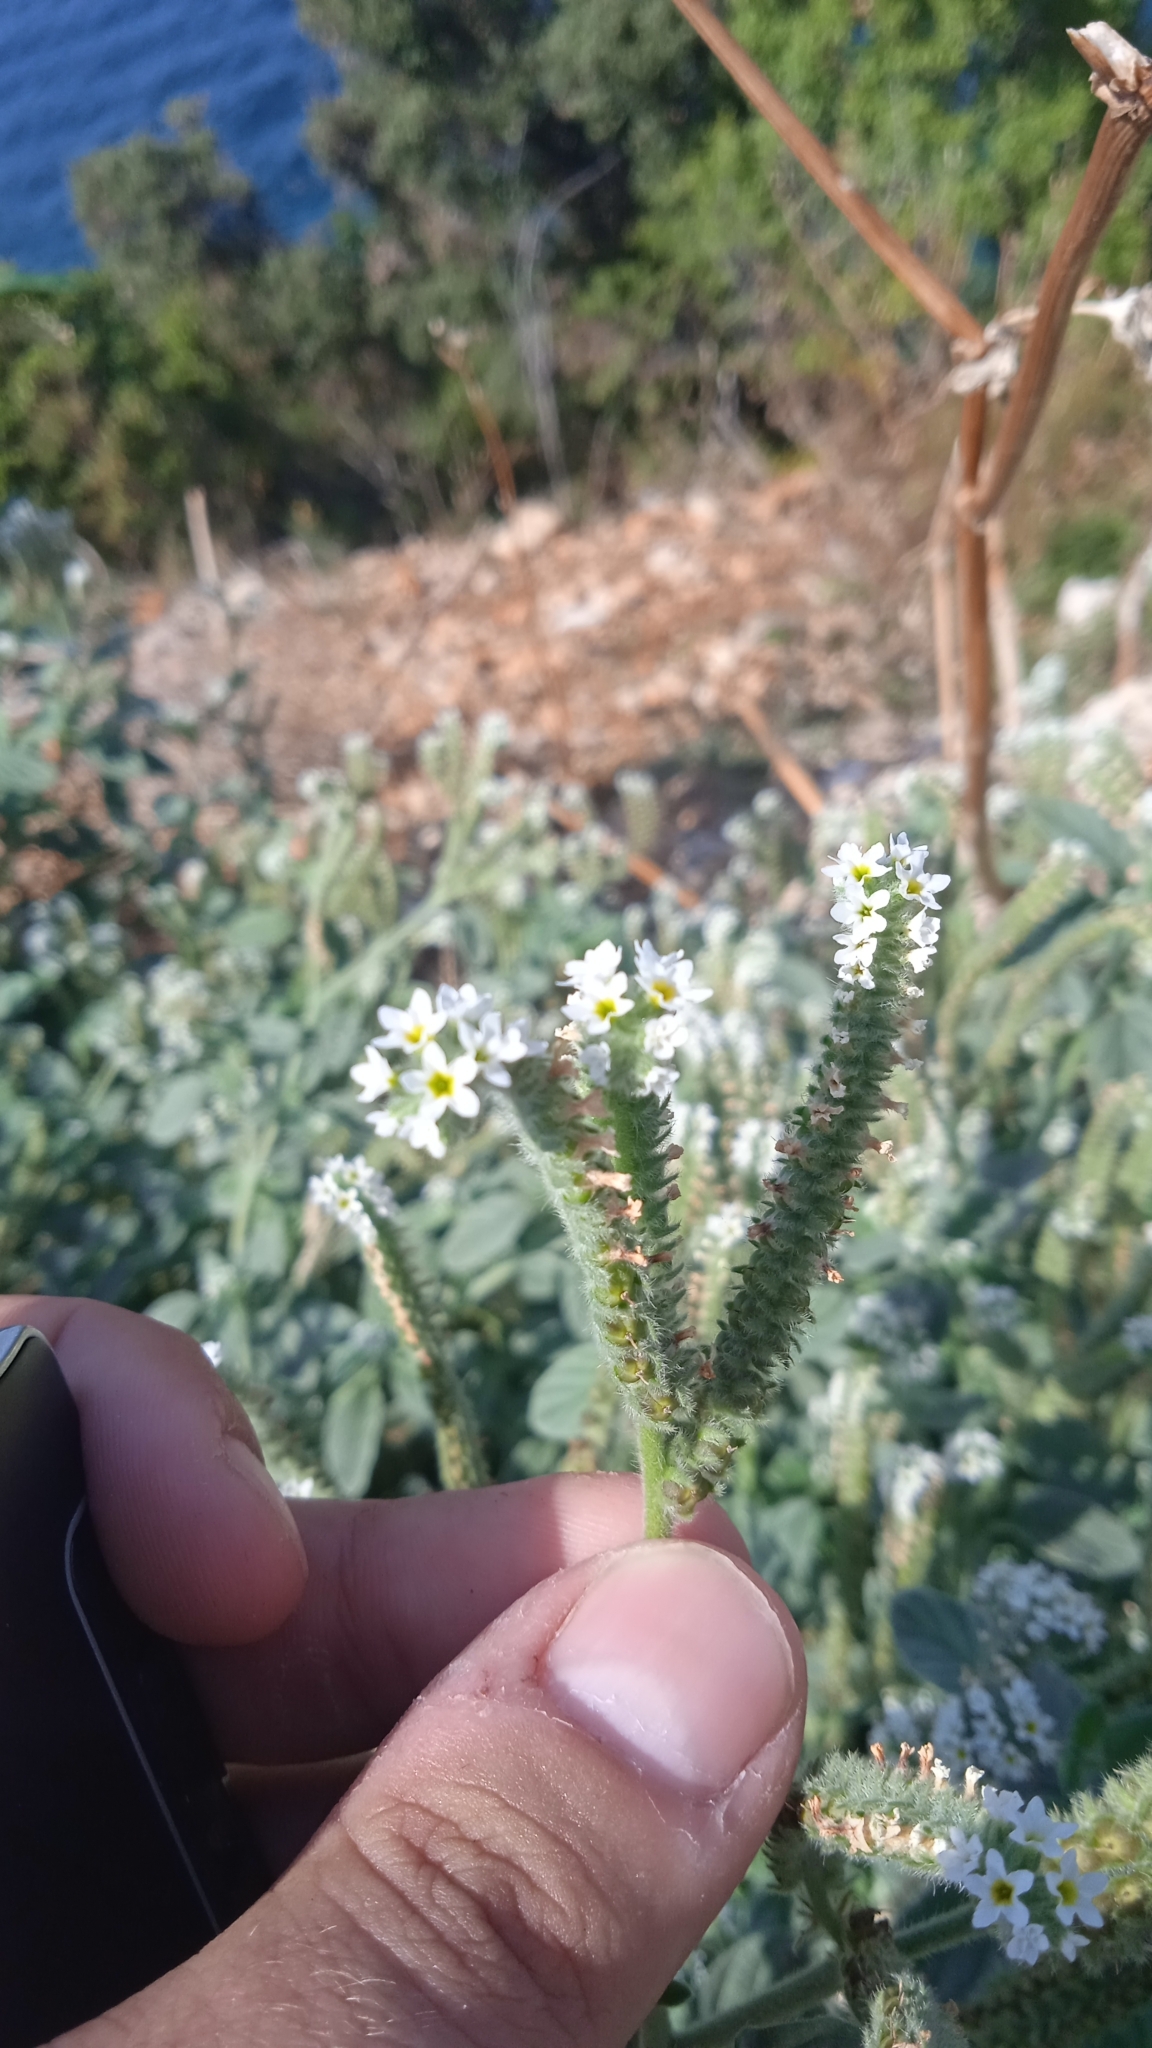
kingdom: Plantae
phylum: Tracheophyta
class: Magnoliopsida
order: Boraginales
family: Heliotropiaceae
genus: Heliotropium
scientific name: Heliotropium europaeum
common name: European heliotrope
